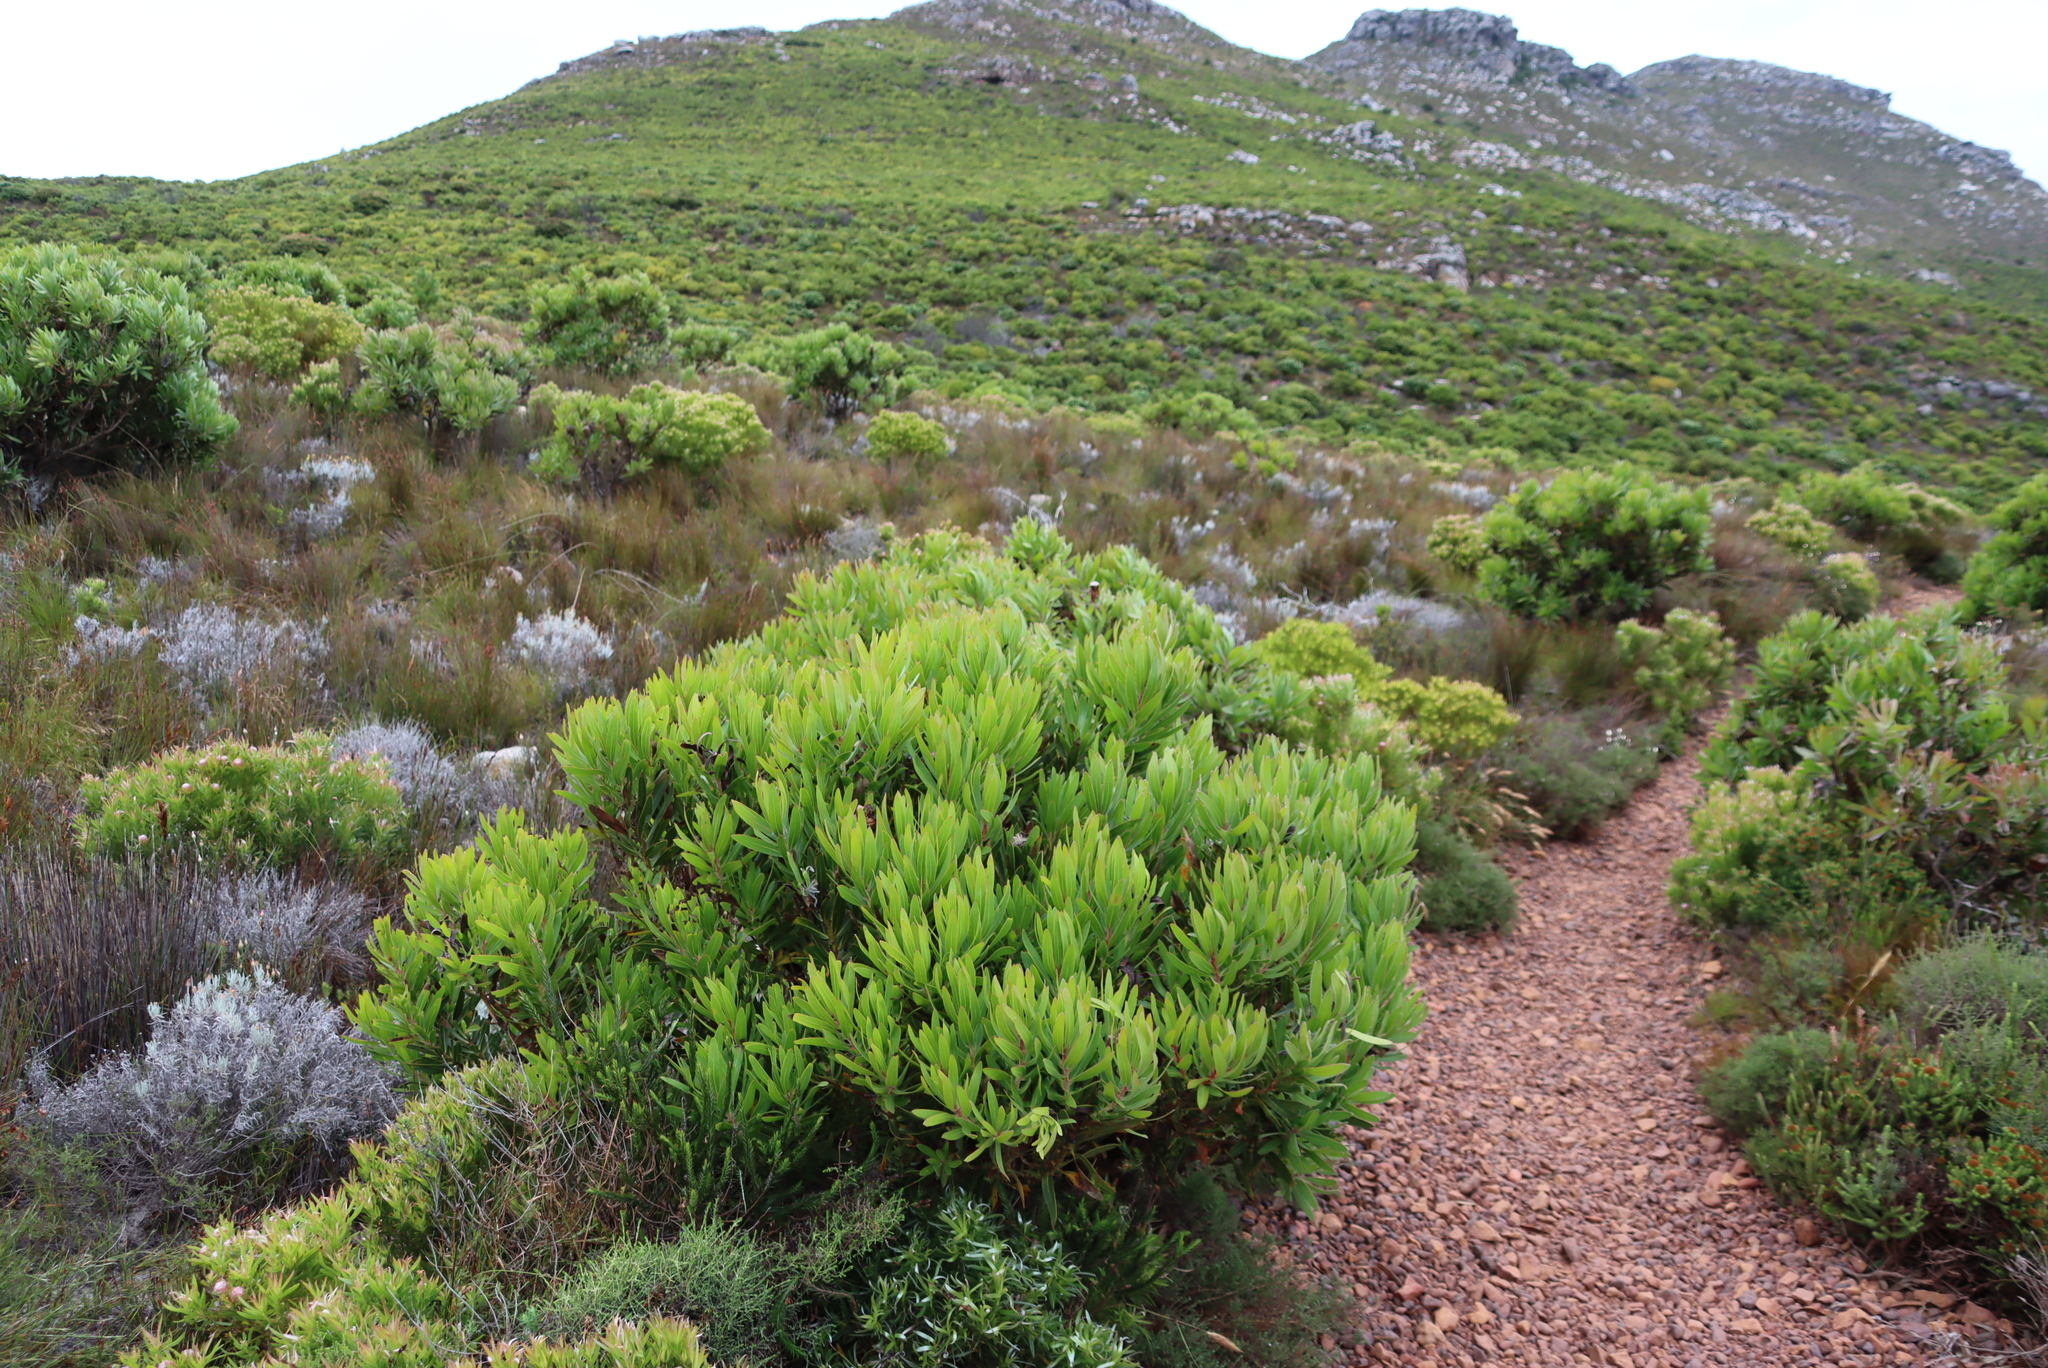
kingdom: Plantae
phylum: Tracheophyta
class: Magnoliopsida
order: Proteales
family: Proteaceae
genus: Protea
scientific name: Protea lepidocarpodendron
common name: Black-bearded protea
